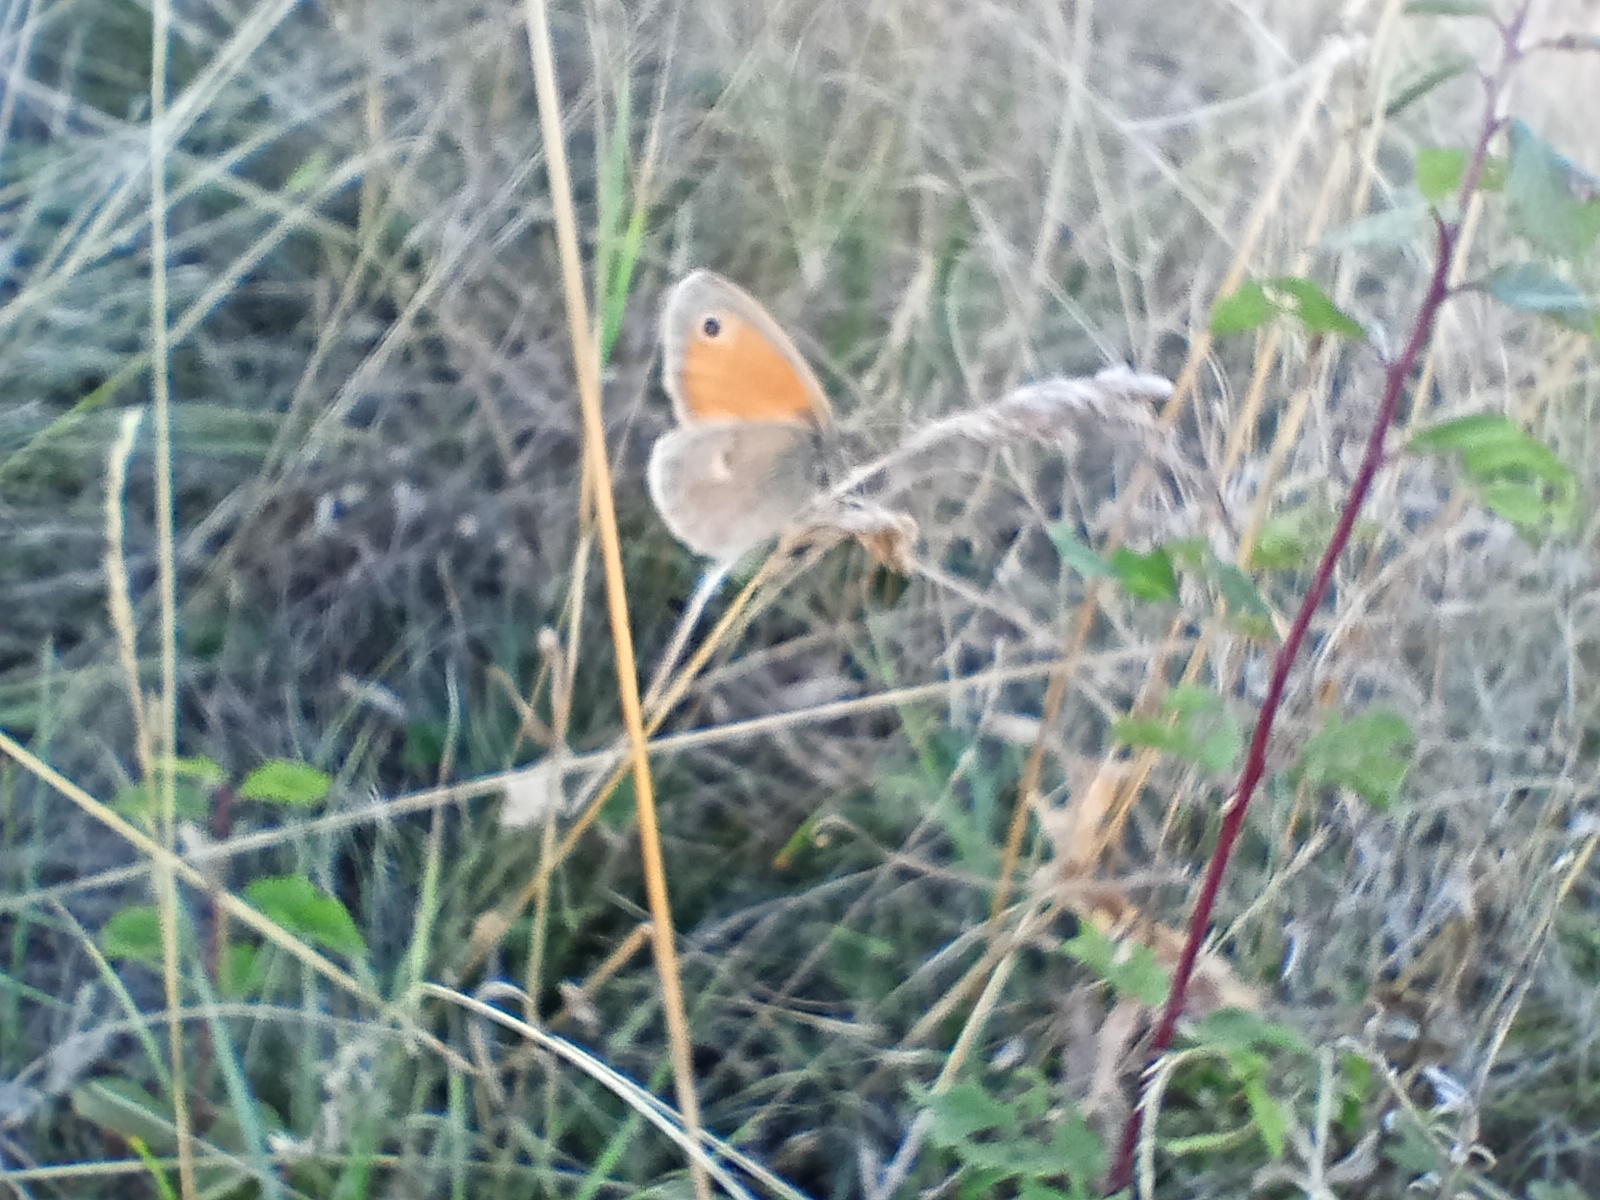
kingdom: Animalia
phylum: Arthropoda
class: Insecta
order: Lepidoptera
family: Nymphalidae
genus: Coenonympha
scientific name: Coenonympha pamphilus
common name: Small heath
